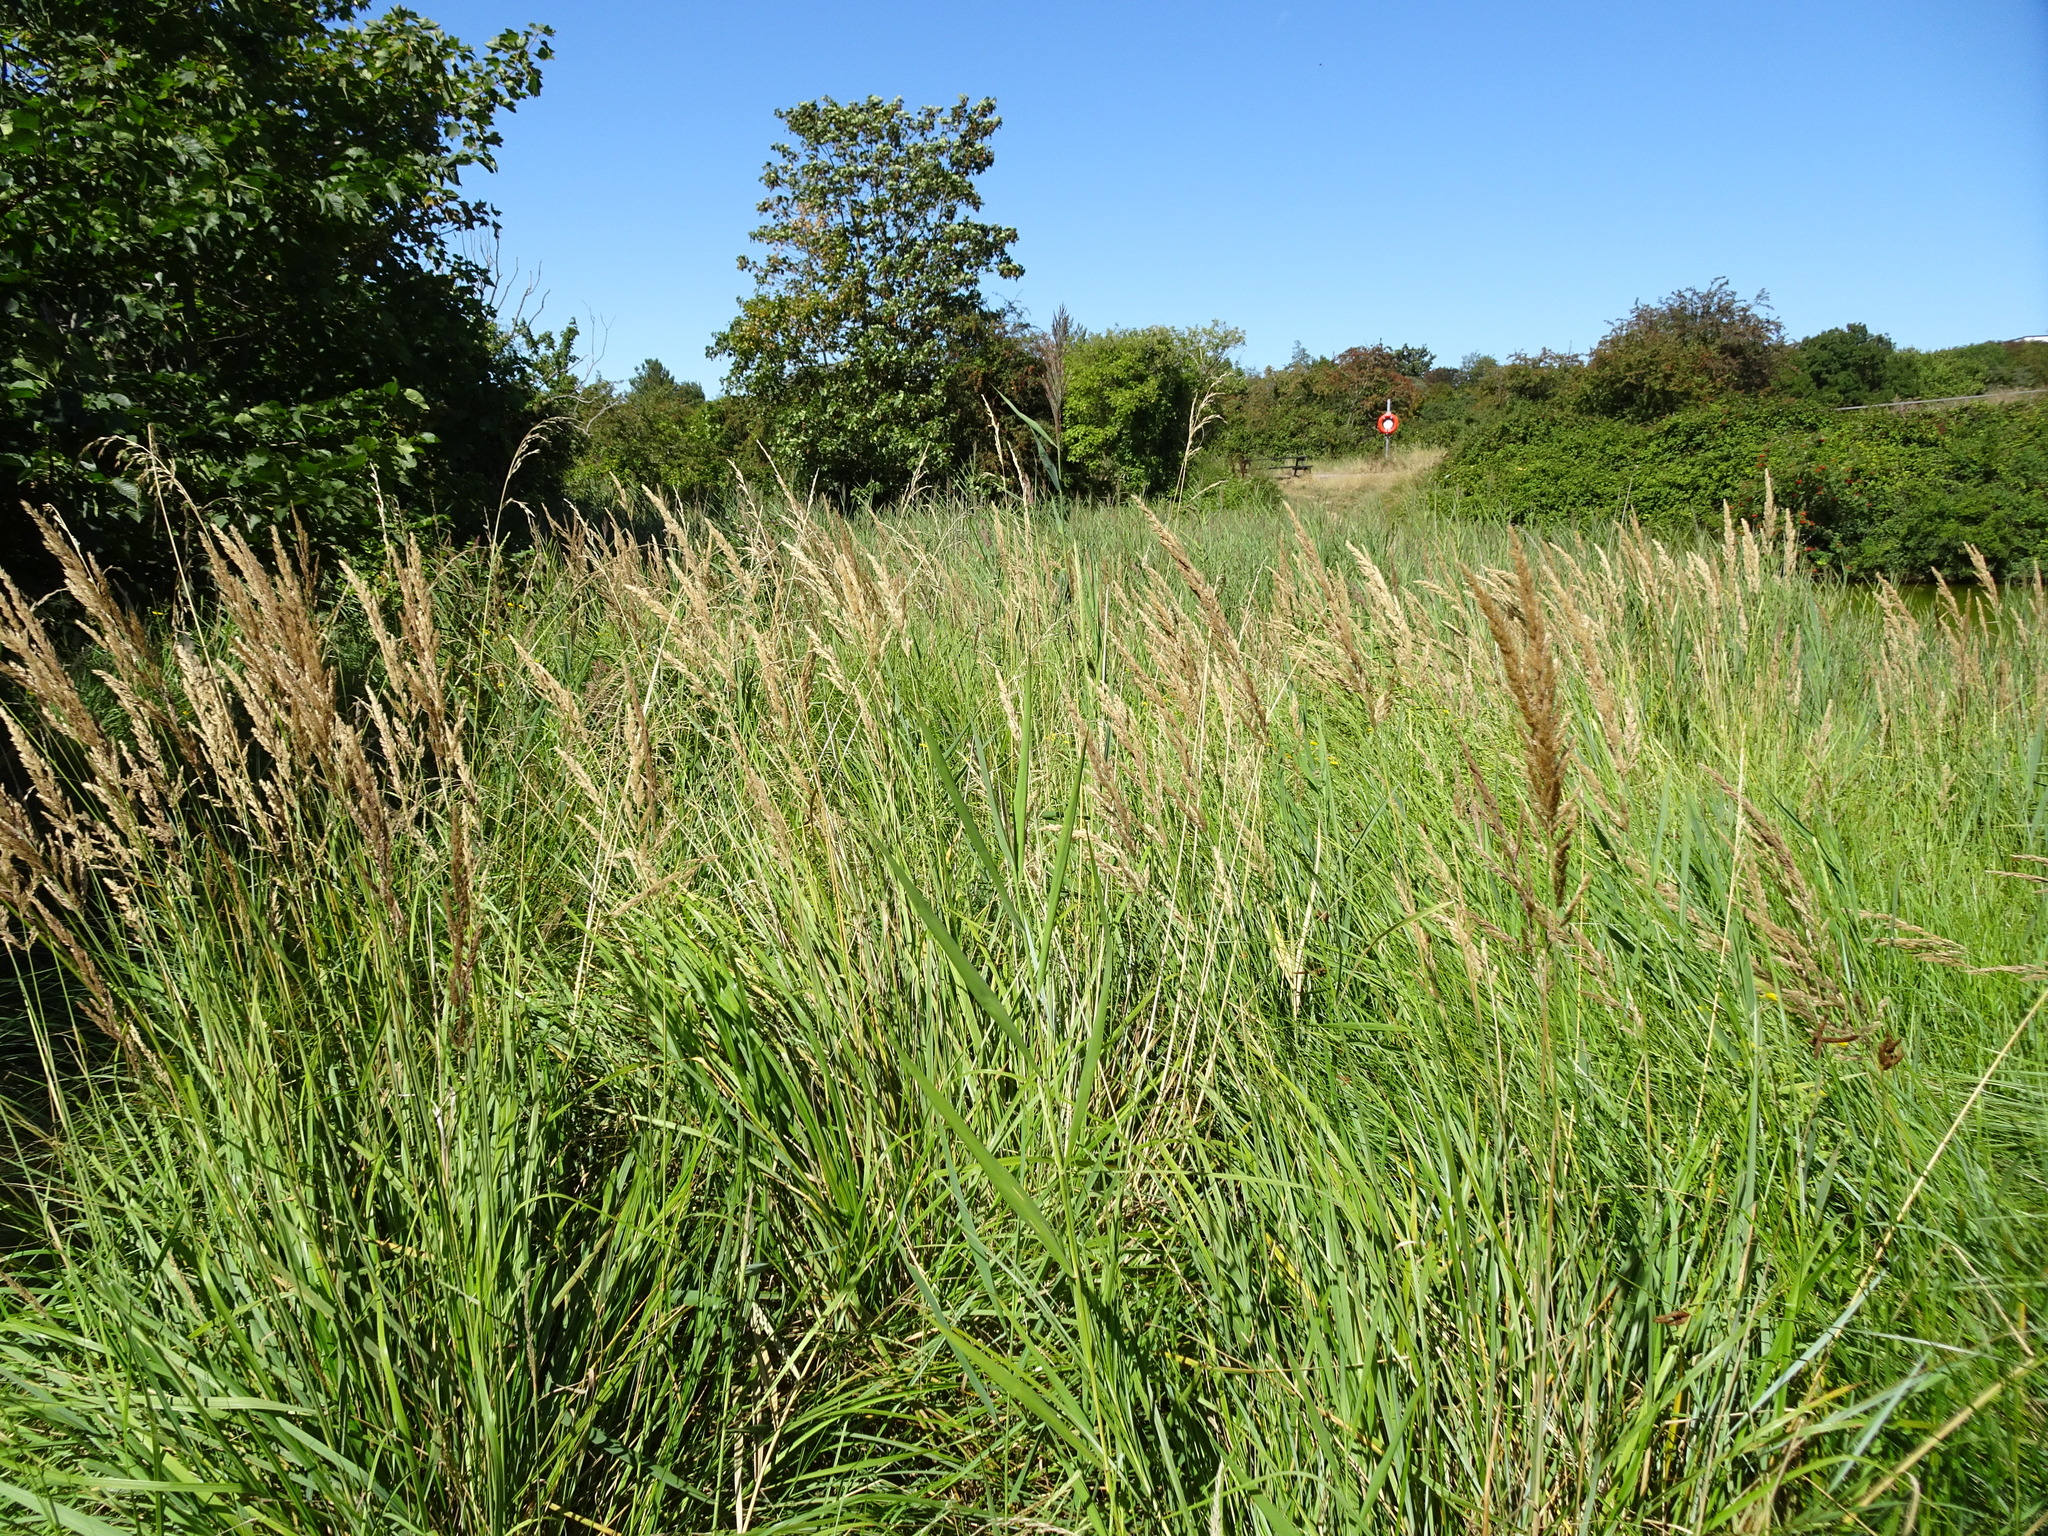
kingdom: Plantae
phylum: Tracheophyta
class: Liliopsida
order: Poales
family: Poaceae
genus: Calamagrostis
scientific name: Calamagrostis epigejos
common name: Wood small-reed
